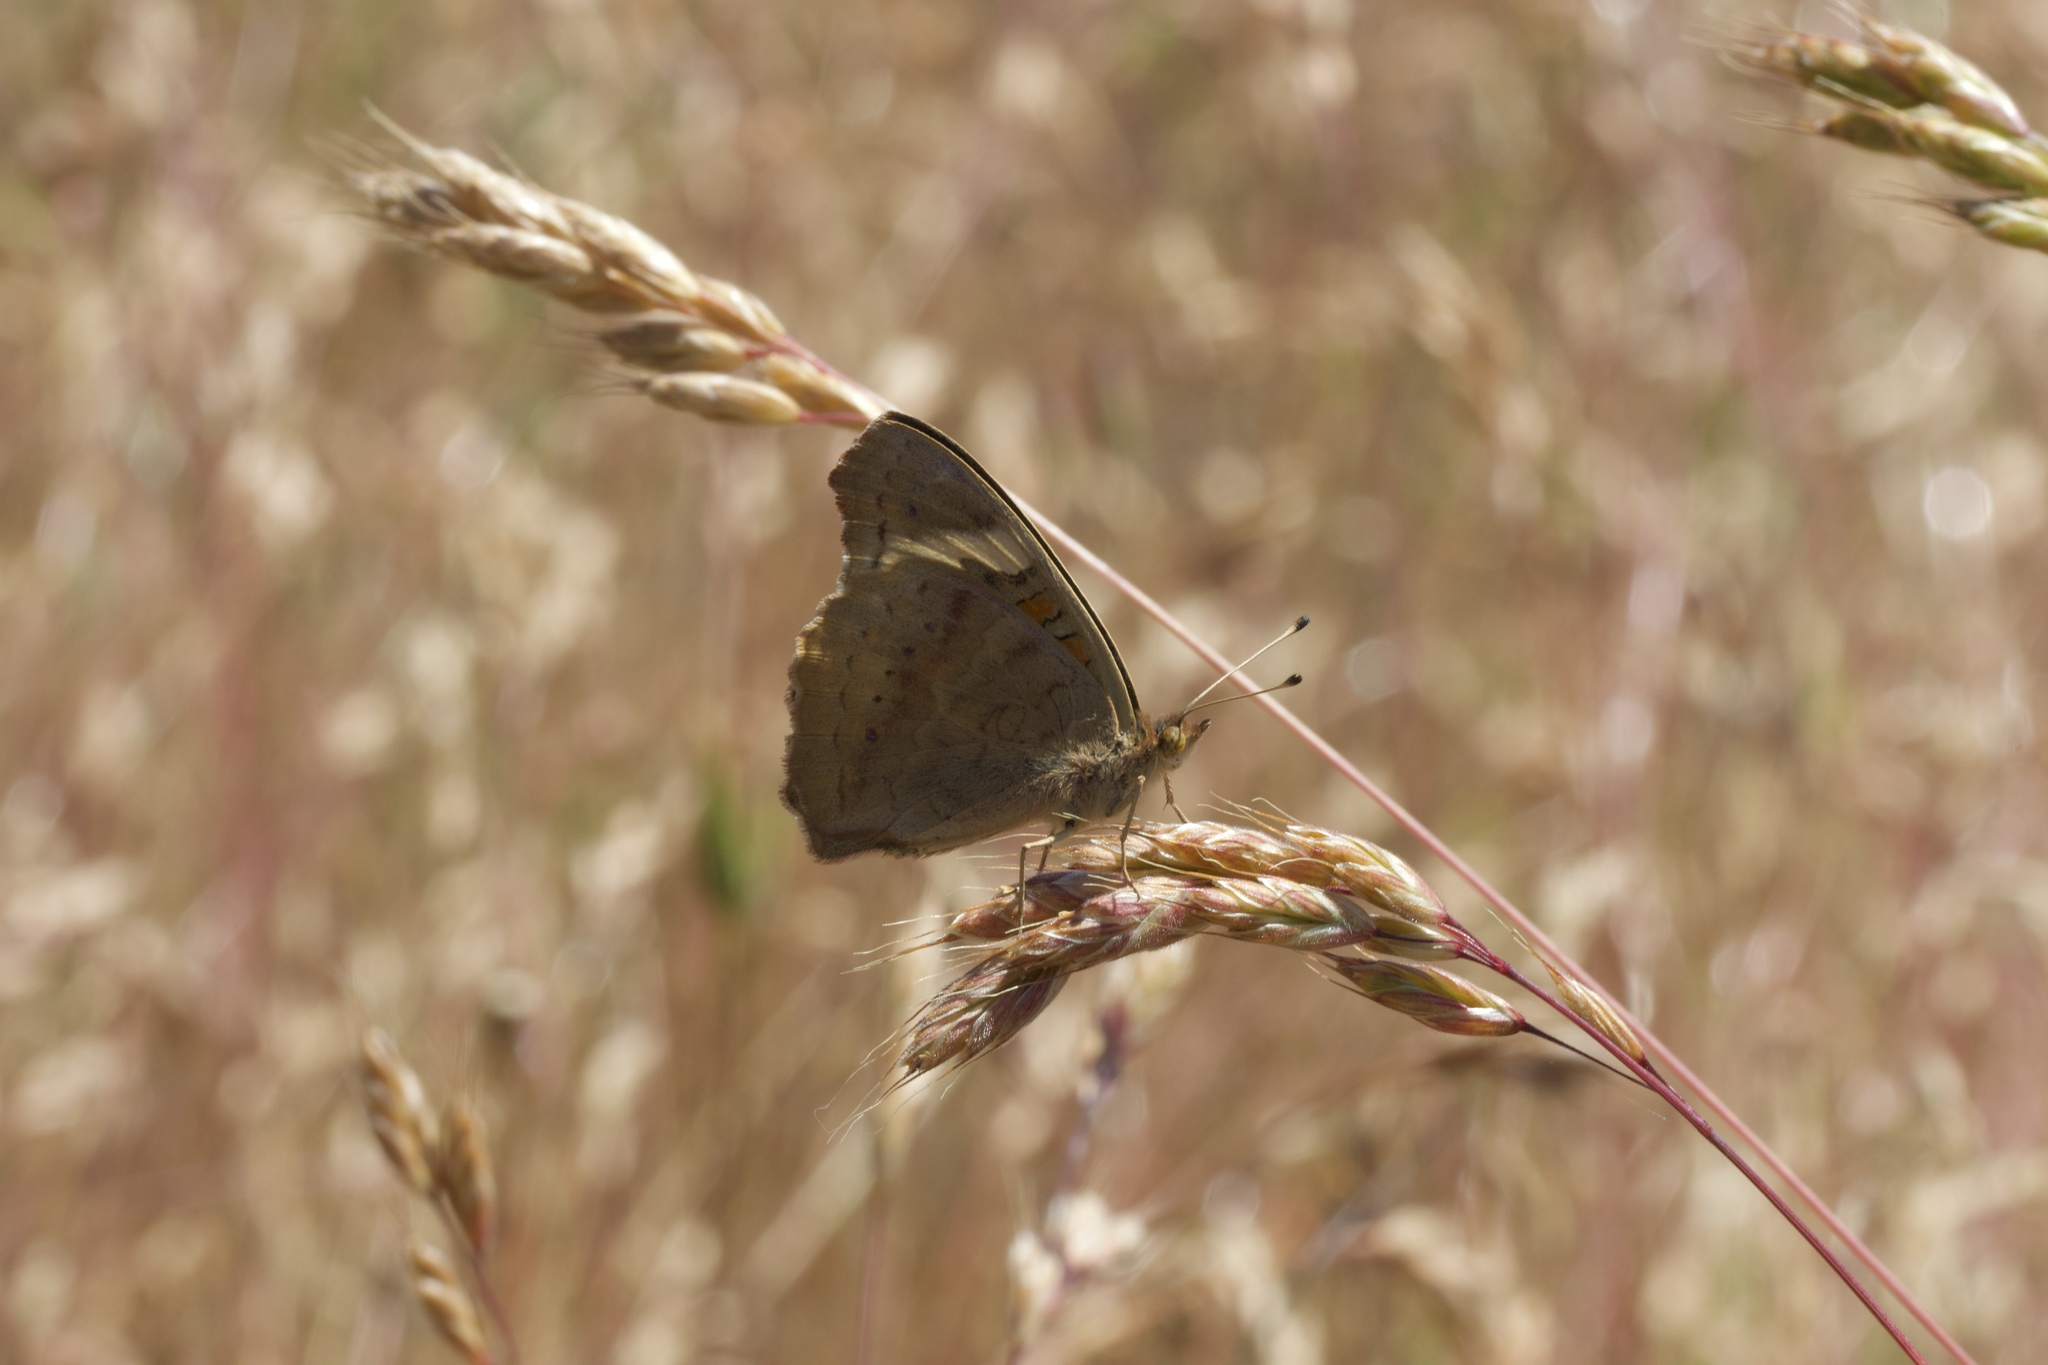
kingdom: Animalia
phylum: Arthropoda
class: Insecta
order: Lepidoptera
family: Nymphalidae
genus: Junonia
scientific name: Junonia grisea
